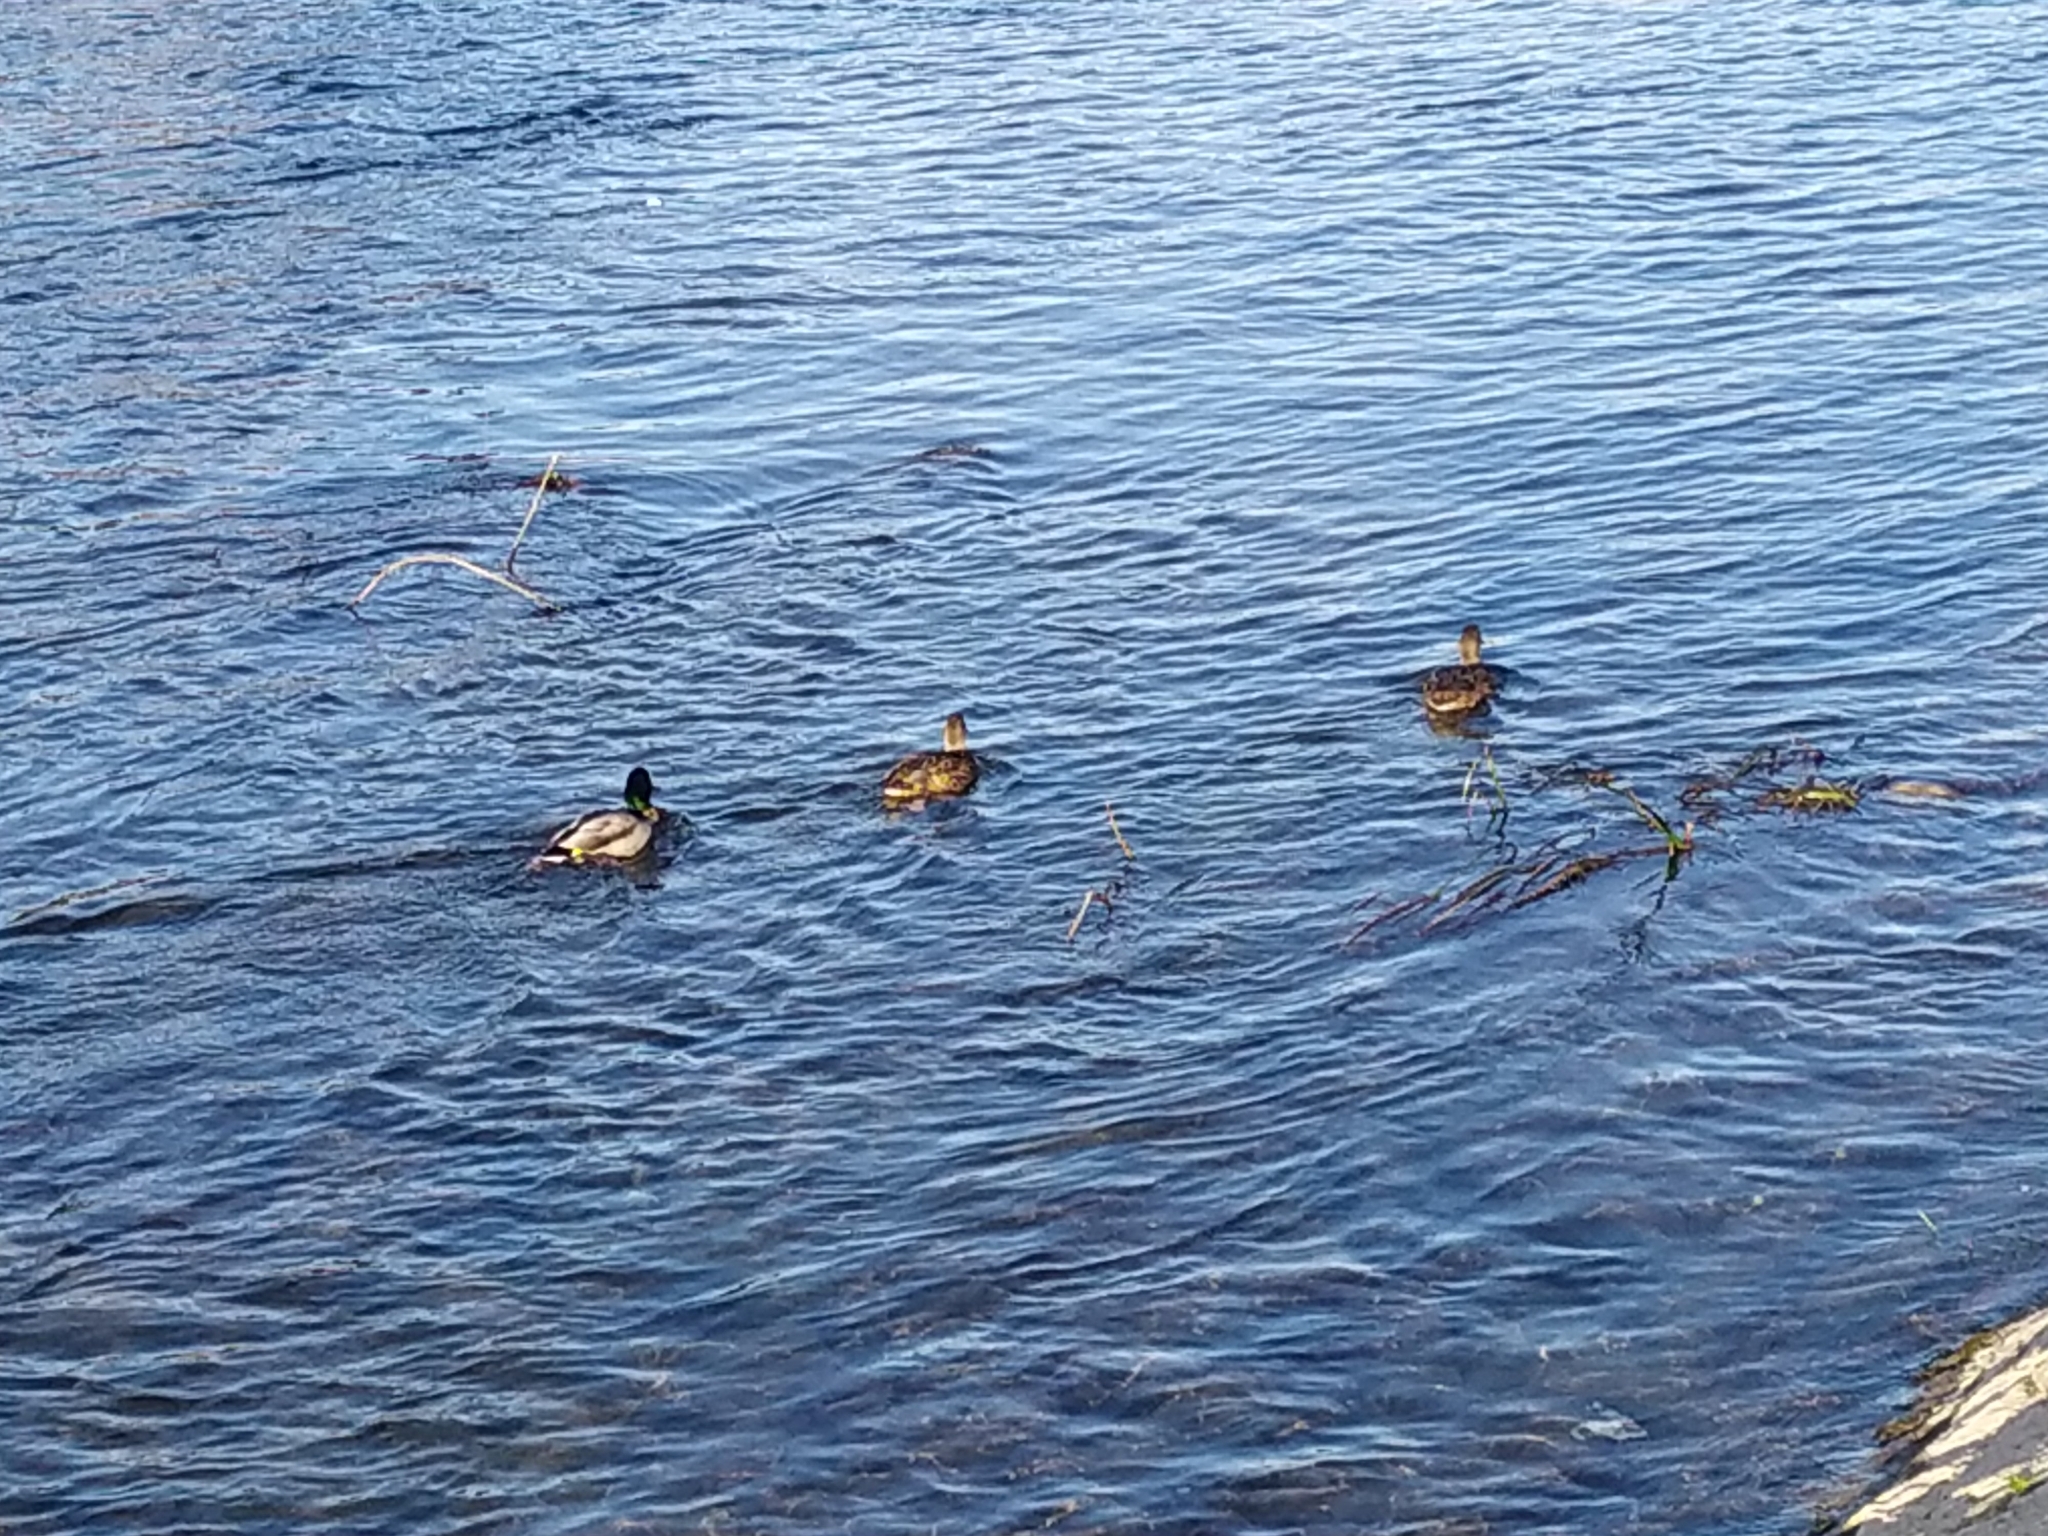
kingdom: Animalia
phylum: Chordata
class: Aves
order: Anseriformes
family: Anatidae
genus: Anas
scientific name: Anas platyrhynchos
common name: Mallard
